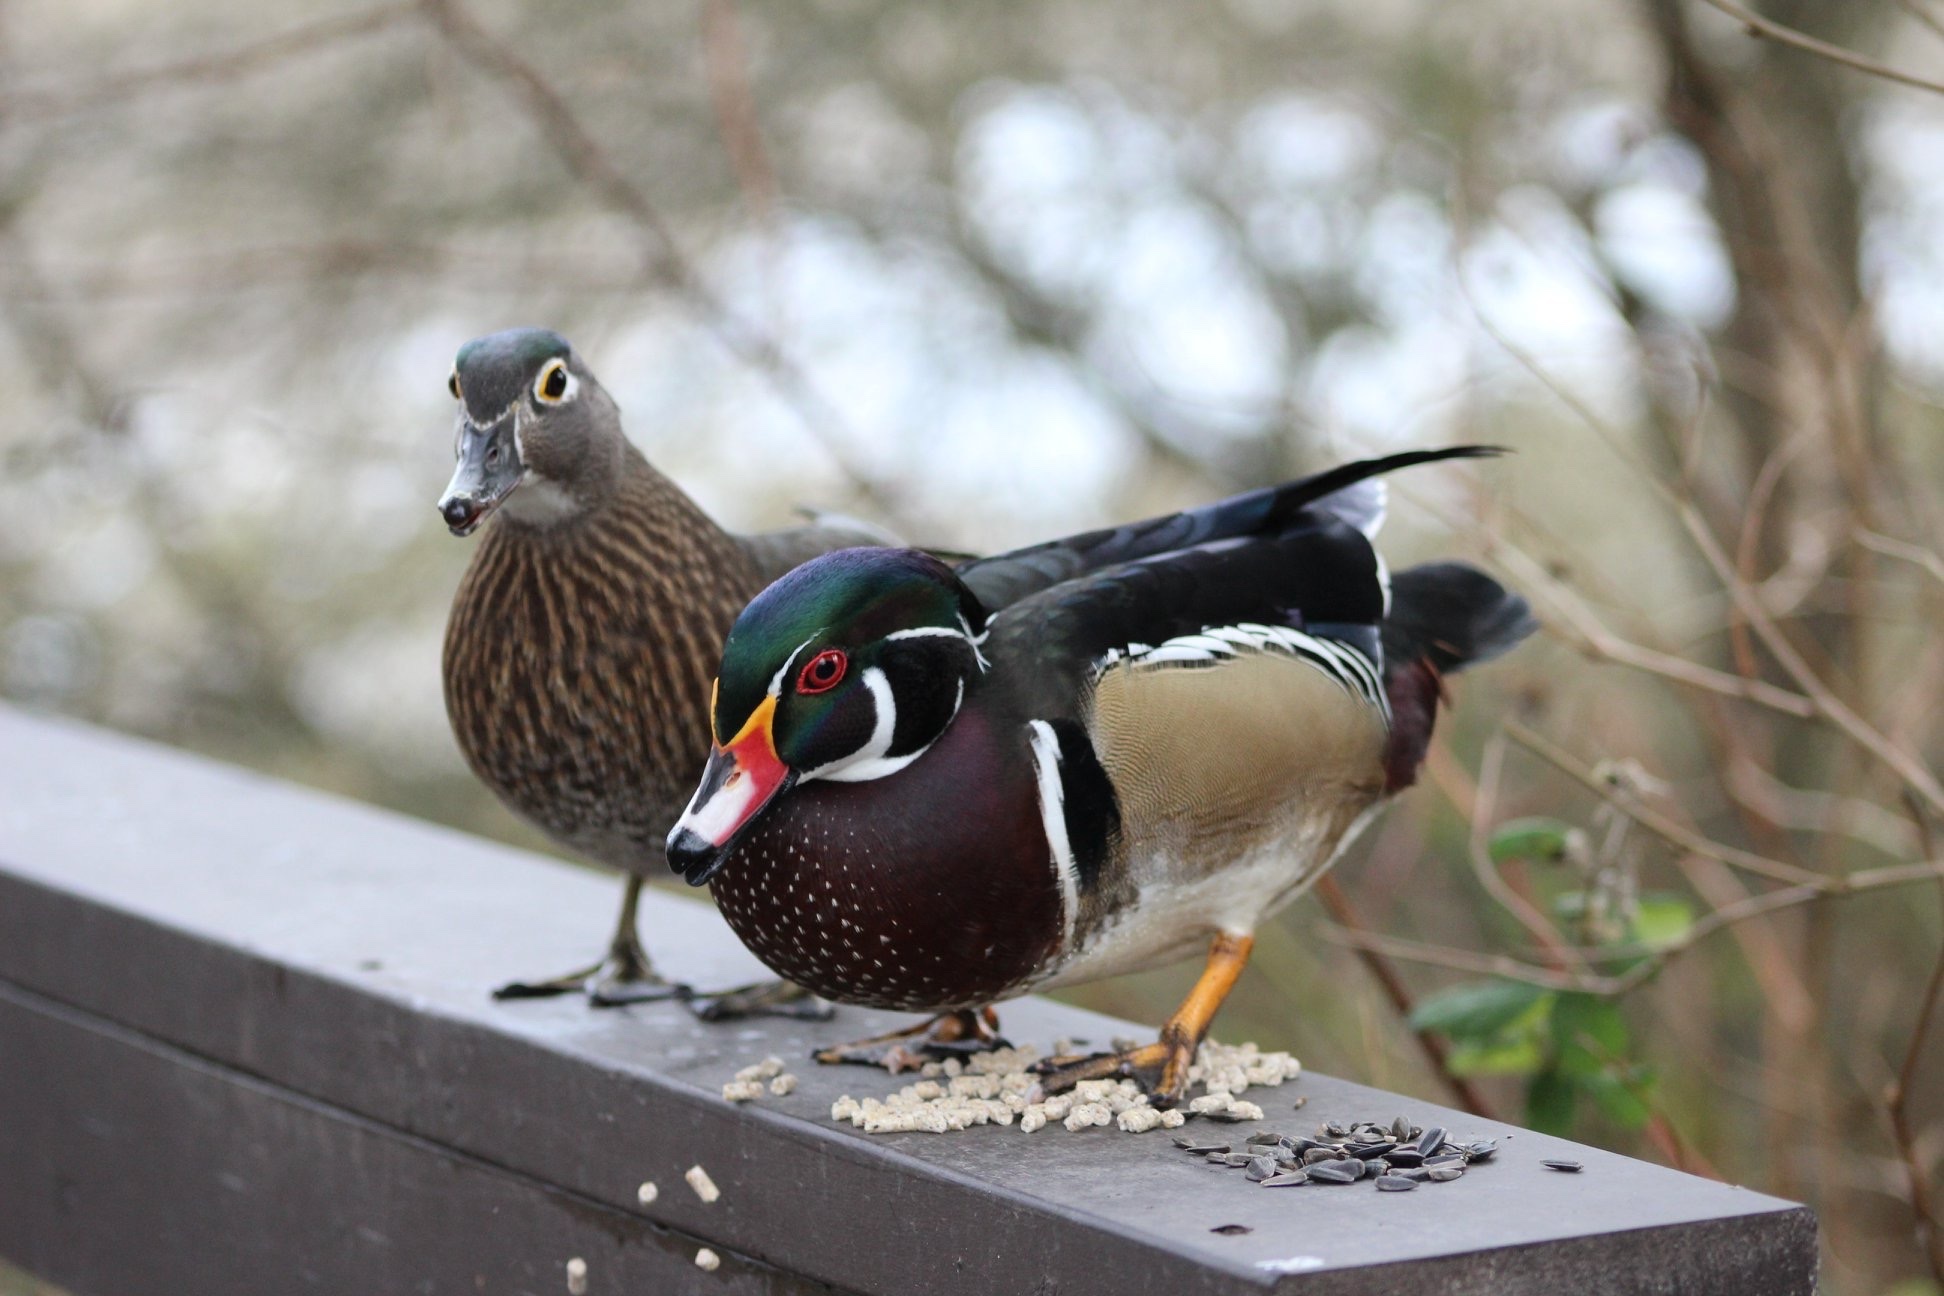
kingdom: Animalia
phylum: Chordata
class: Aves
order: Anseriformes
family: Anatidae
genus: Aix
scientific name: Aix sponsa
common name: Wood duck
